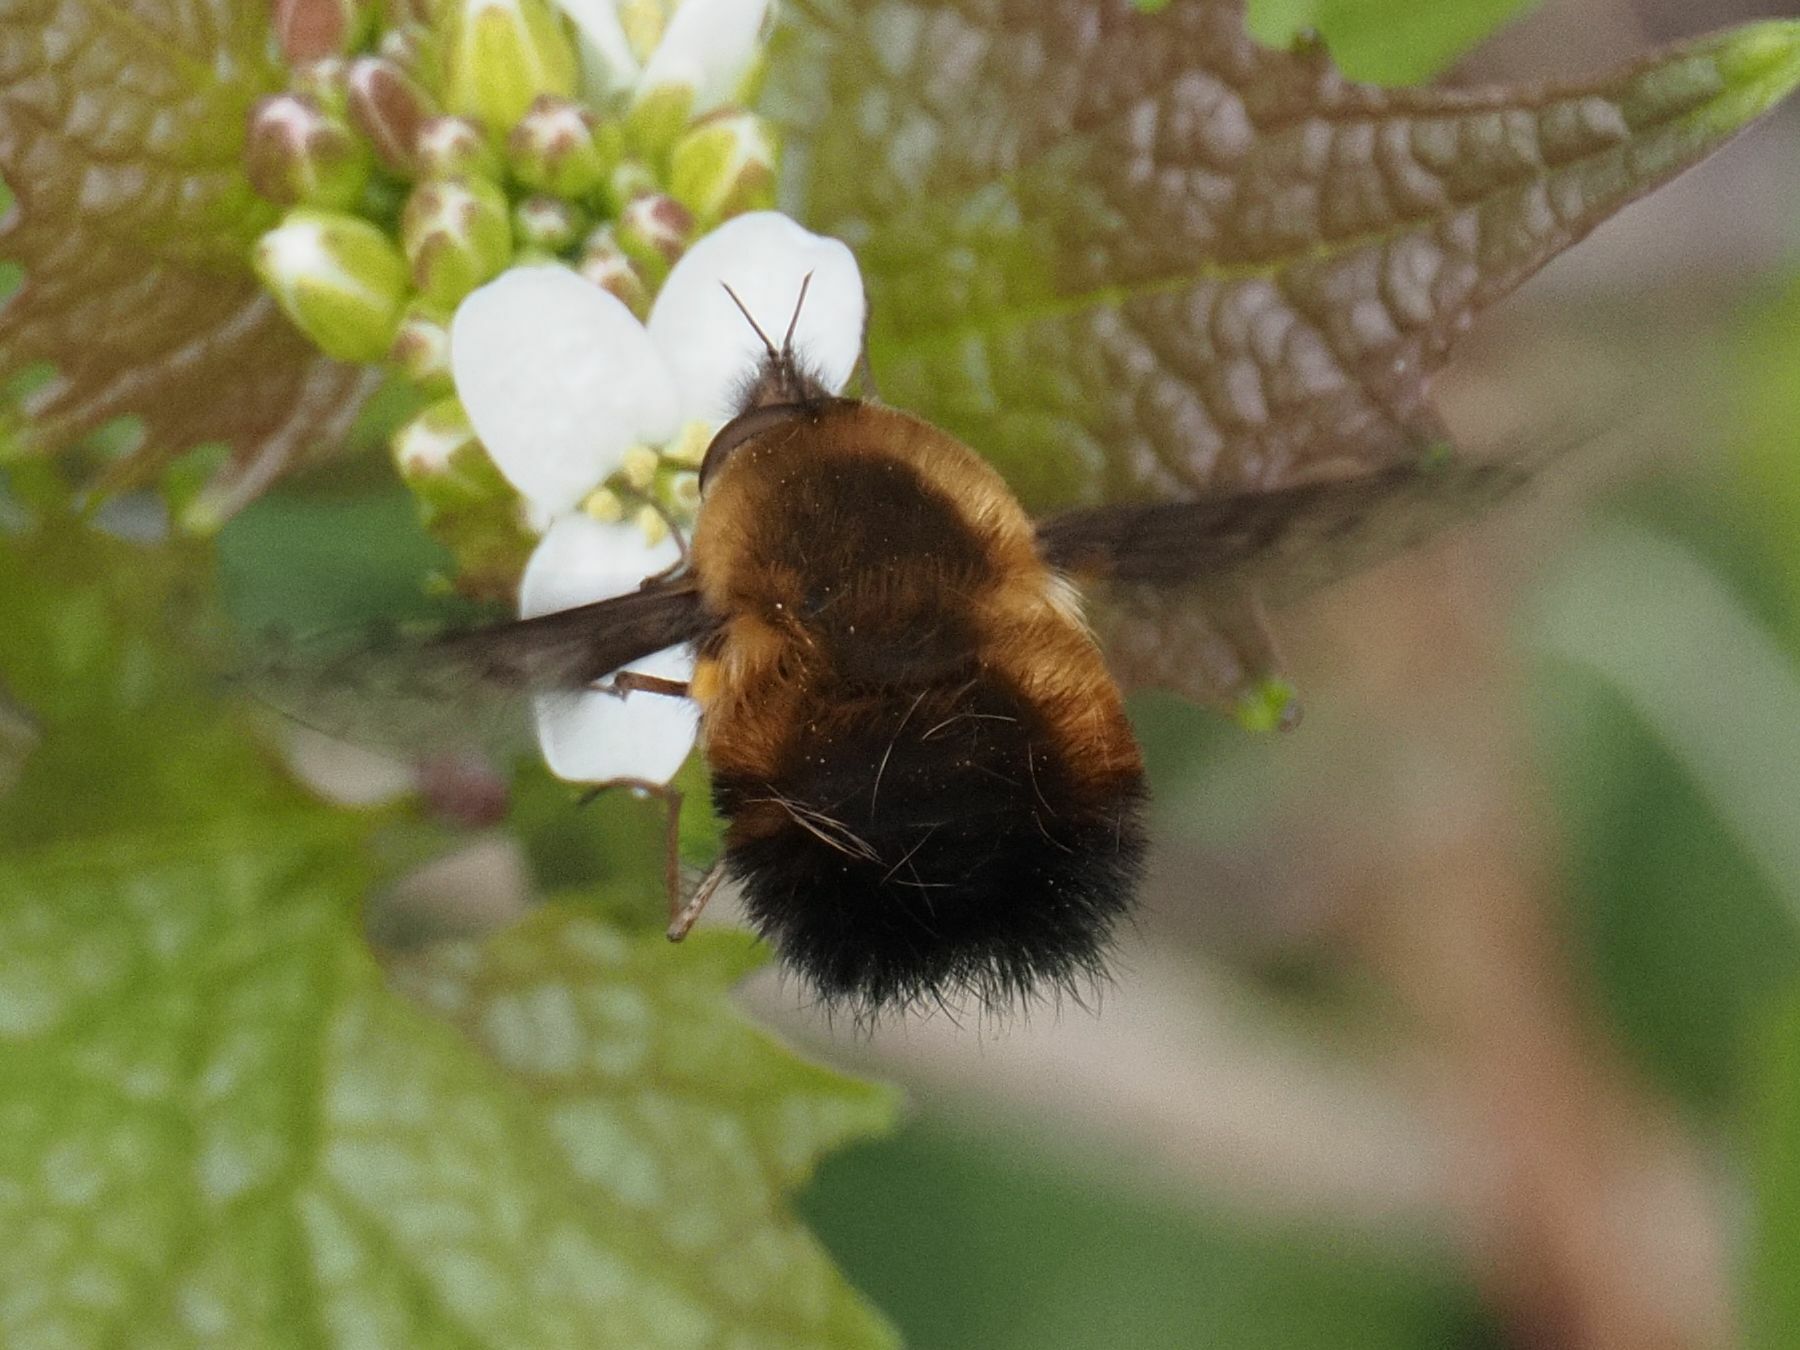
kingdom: Animalia
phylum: Arthropoda
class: Insecta
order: Diptera
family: Bombyliidae
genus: Bombylius
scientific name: Bombylius discolor
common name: Dotted bee-fly
